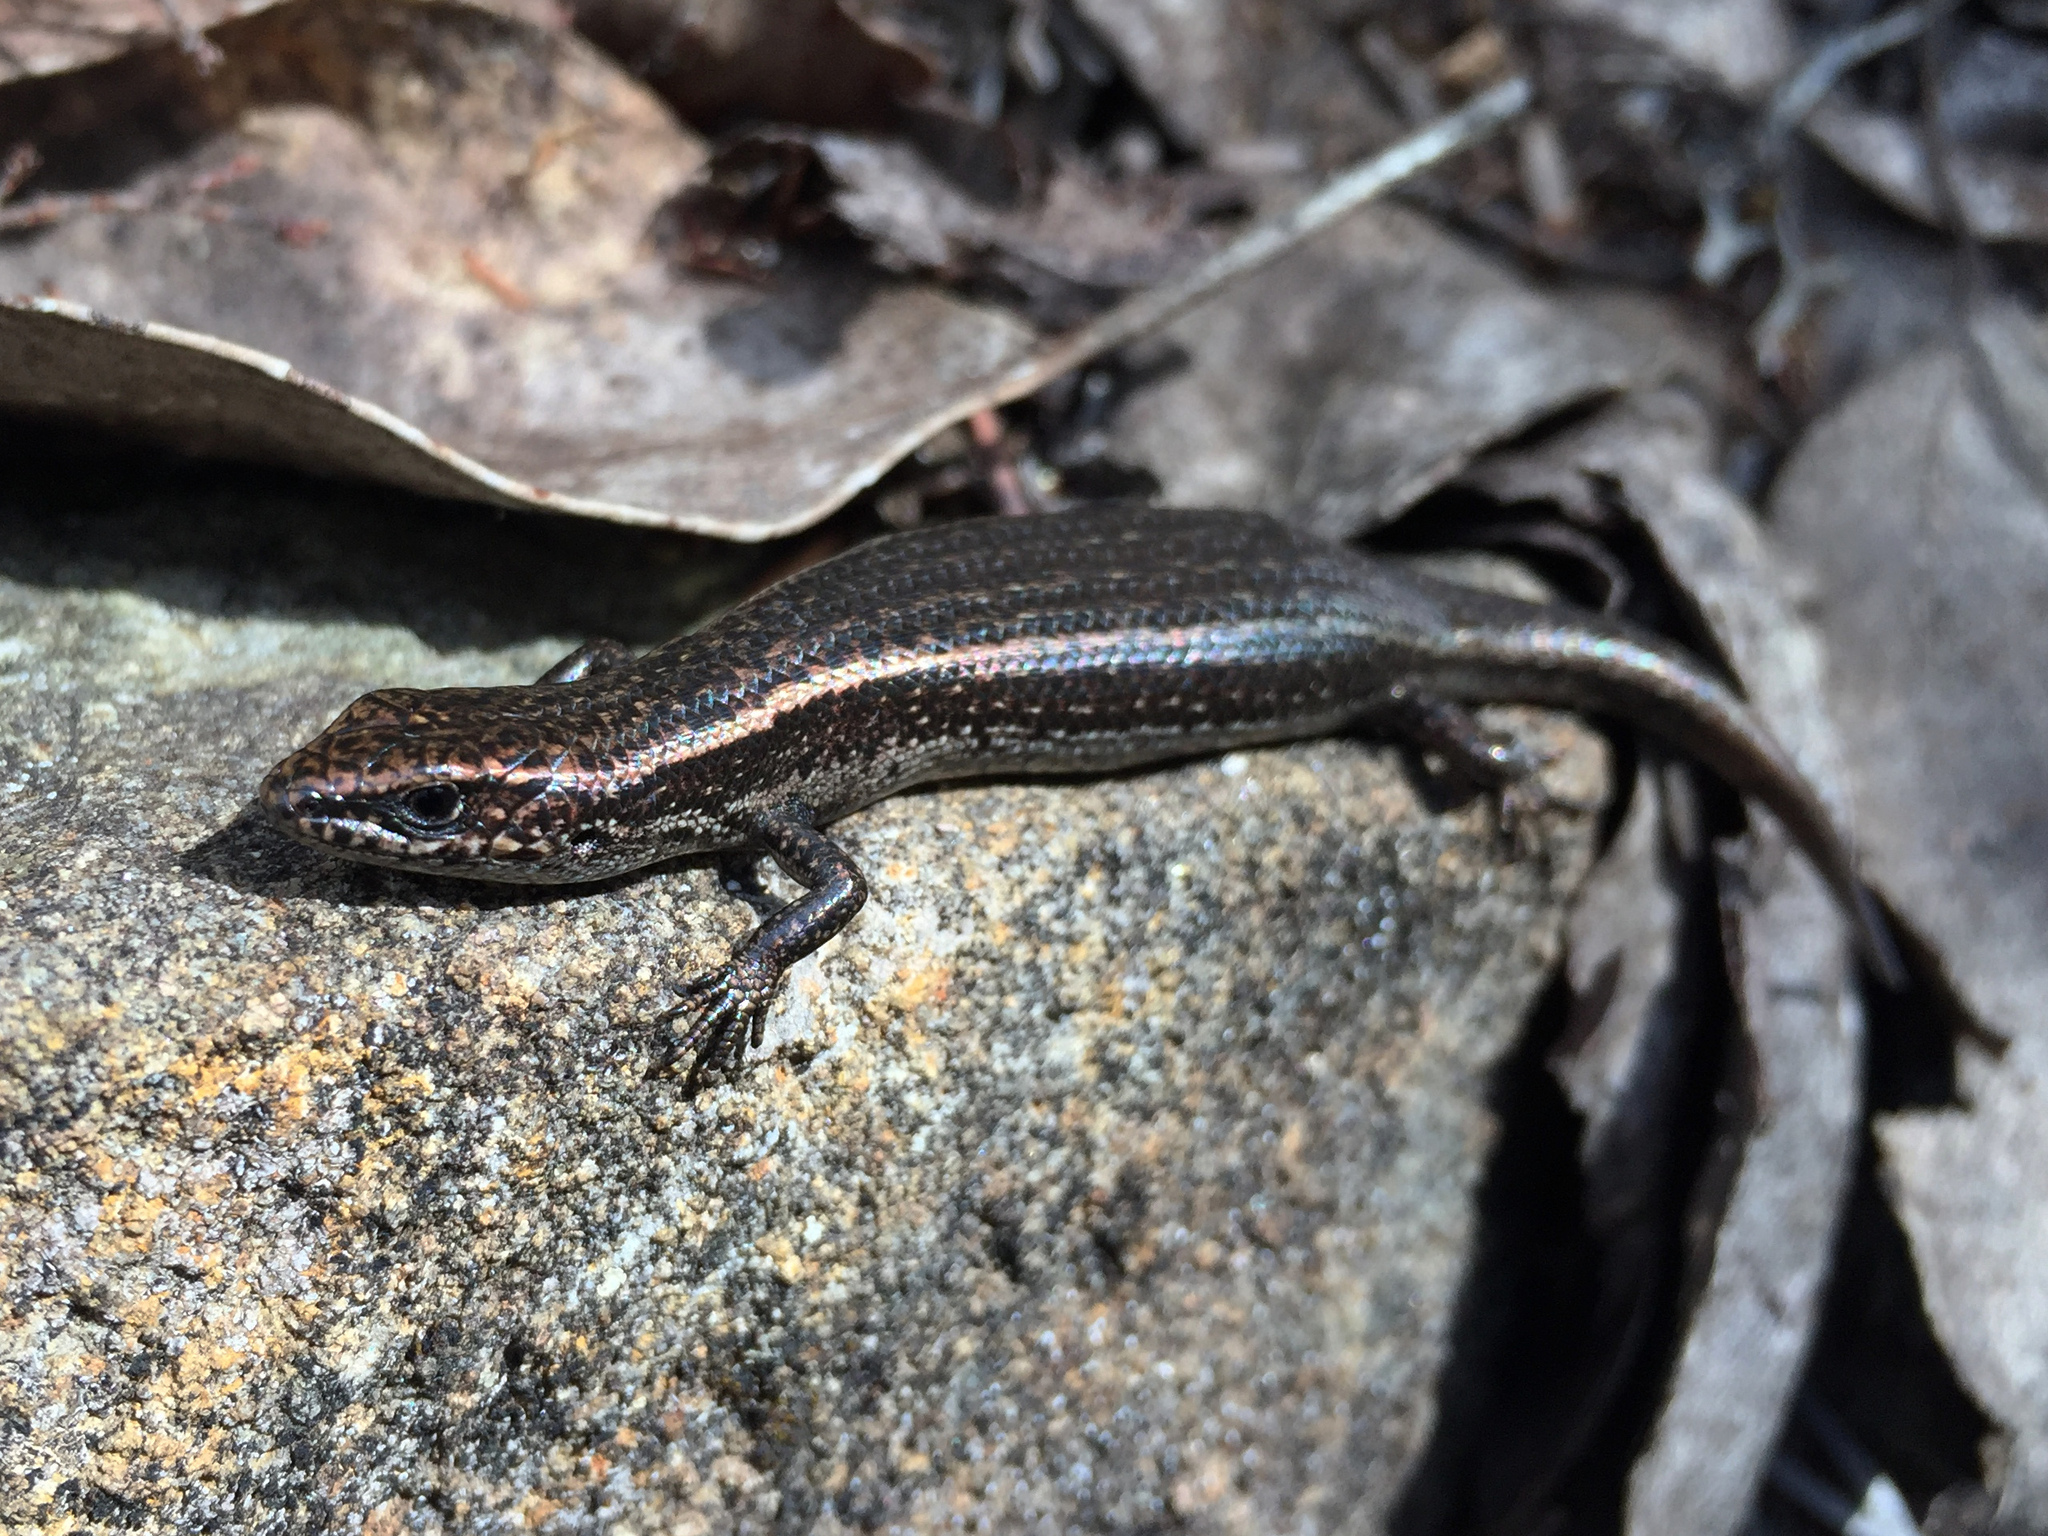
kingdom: Animalia
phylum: Chordata
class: Squamata
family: Scincidae
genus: Carinascincus
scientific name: Carinascincus metallicus
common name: Metallic cool-skink
